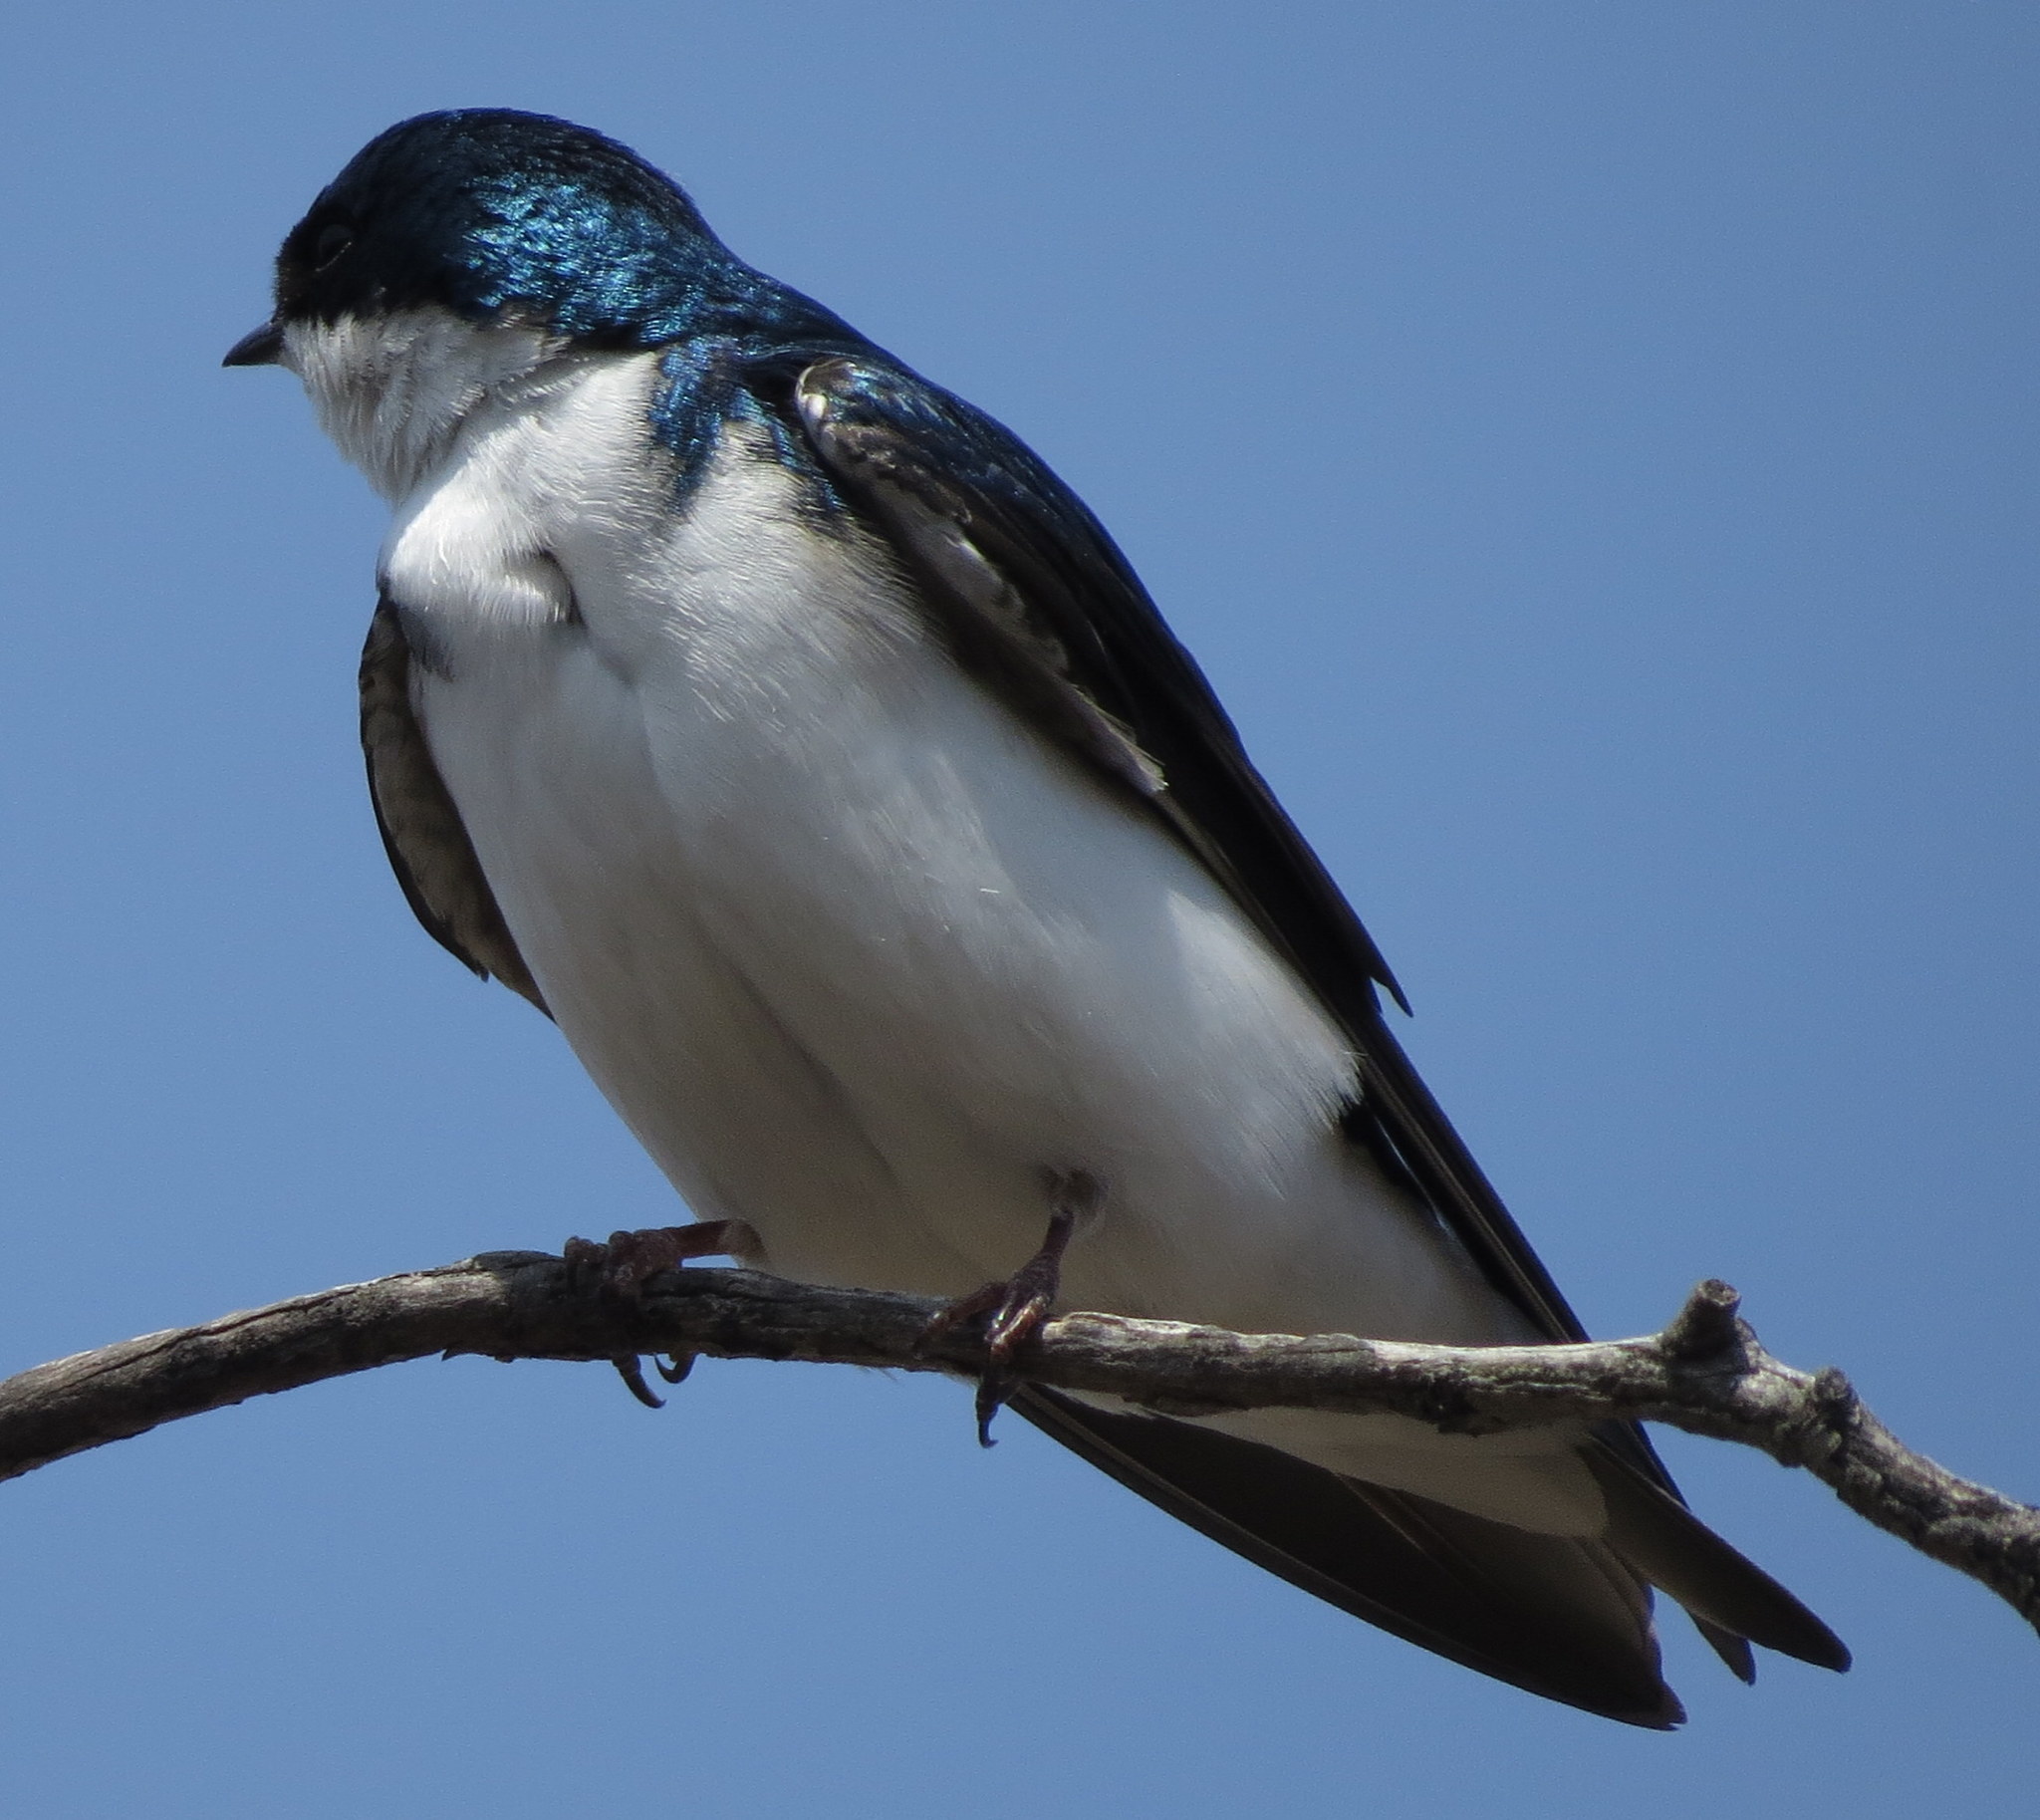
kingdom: Animalia
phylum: Chordata
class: Aves
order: Passeriformes
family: Hirundinidae
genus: Tachycineta
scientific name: Tachycineta bicolor
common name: Tree swallow
